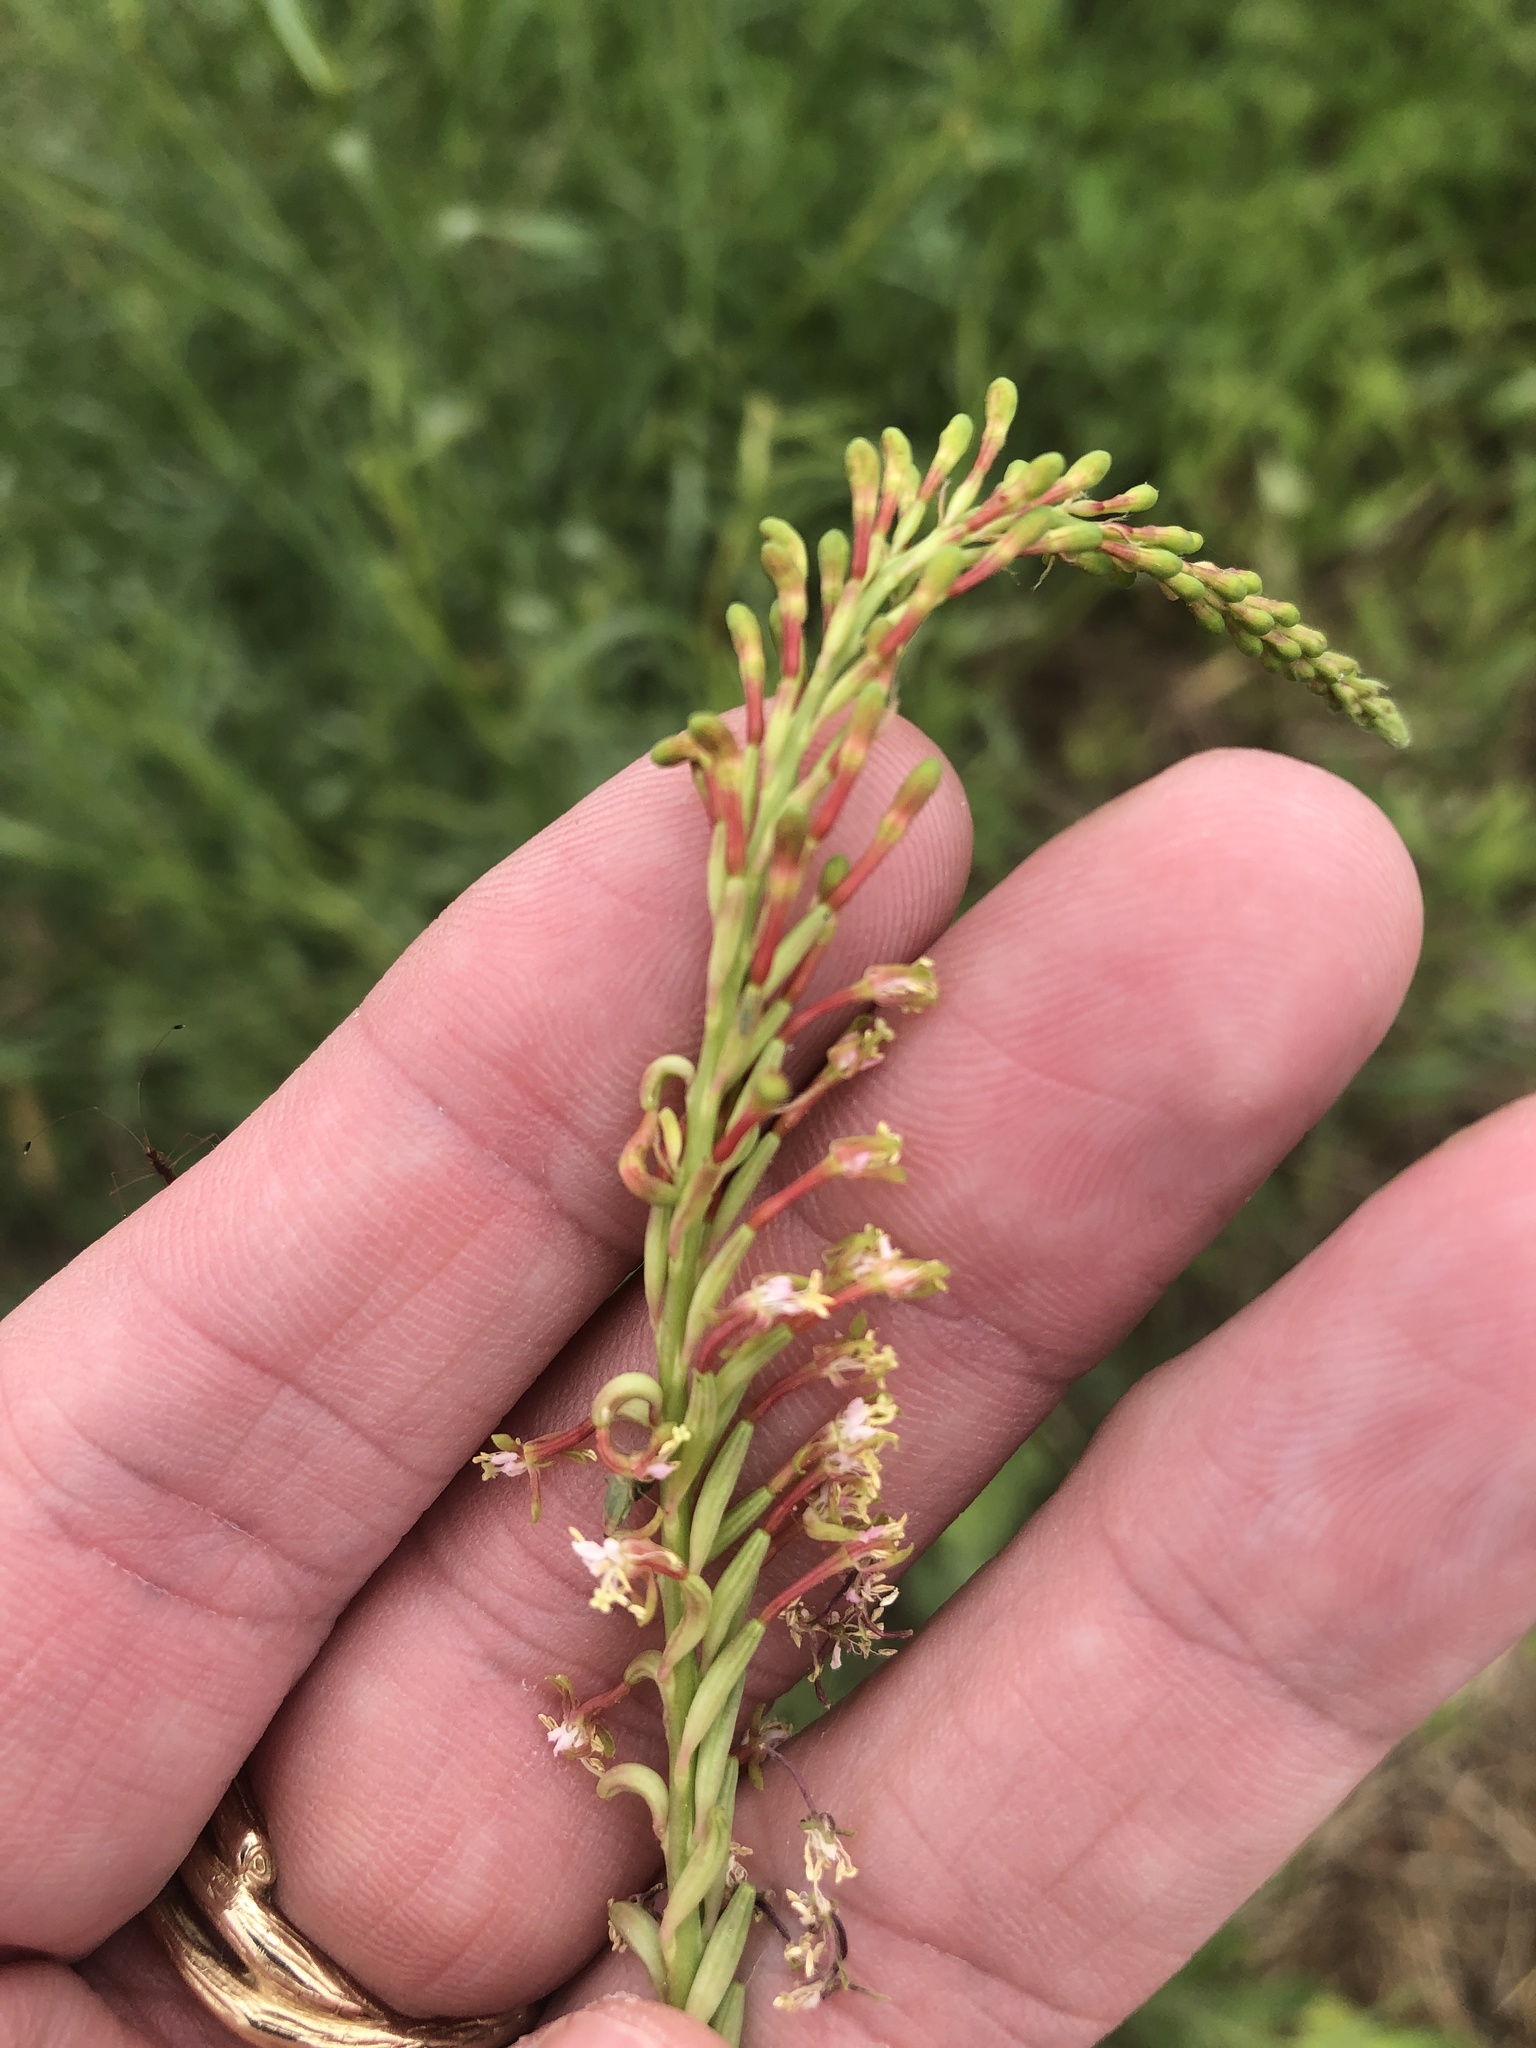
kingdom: Plantae
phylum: Tracheophyta
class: Magnoliopsida
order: Myrtales
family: Onagraceae
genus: Oenothera
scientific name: Oenothera curtiflora
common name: Velvetweed
